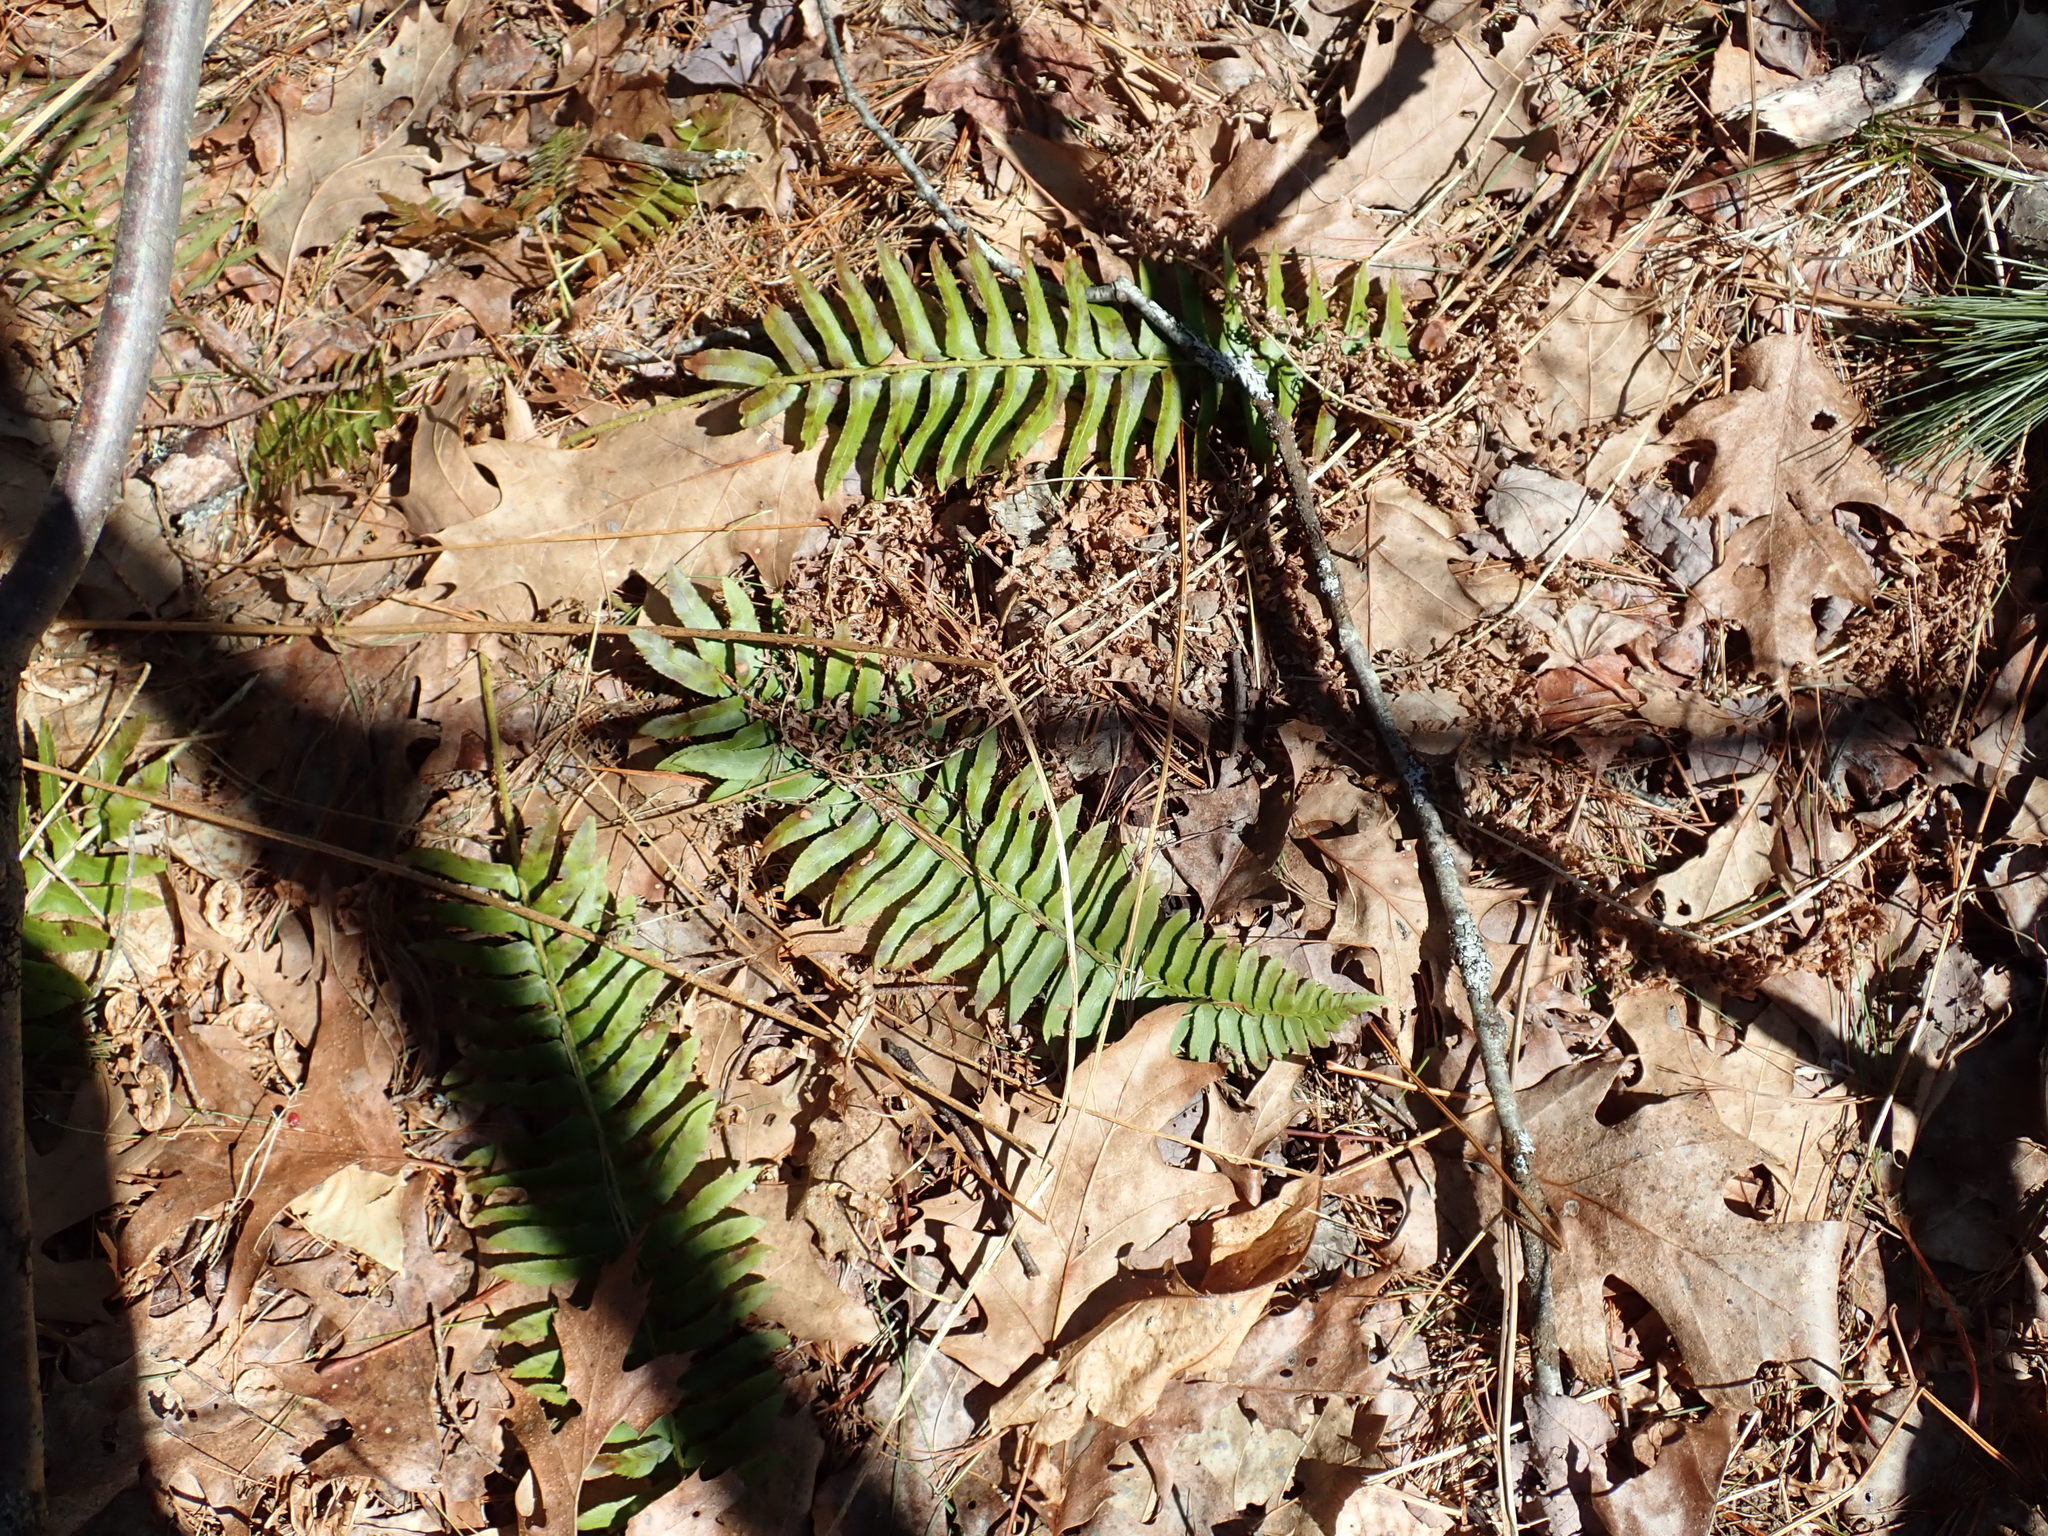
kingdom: Plantae
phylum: Tracheophyta
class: Polypodiopsida
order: Polypodiales
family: Dryopteridaceae
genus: Polystichum
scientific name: Polystichum acrostichoides
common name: Christmas fern
